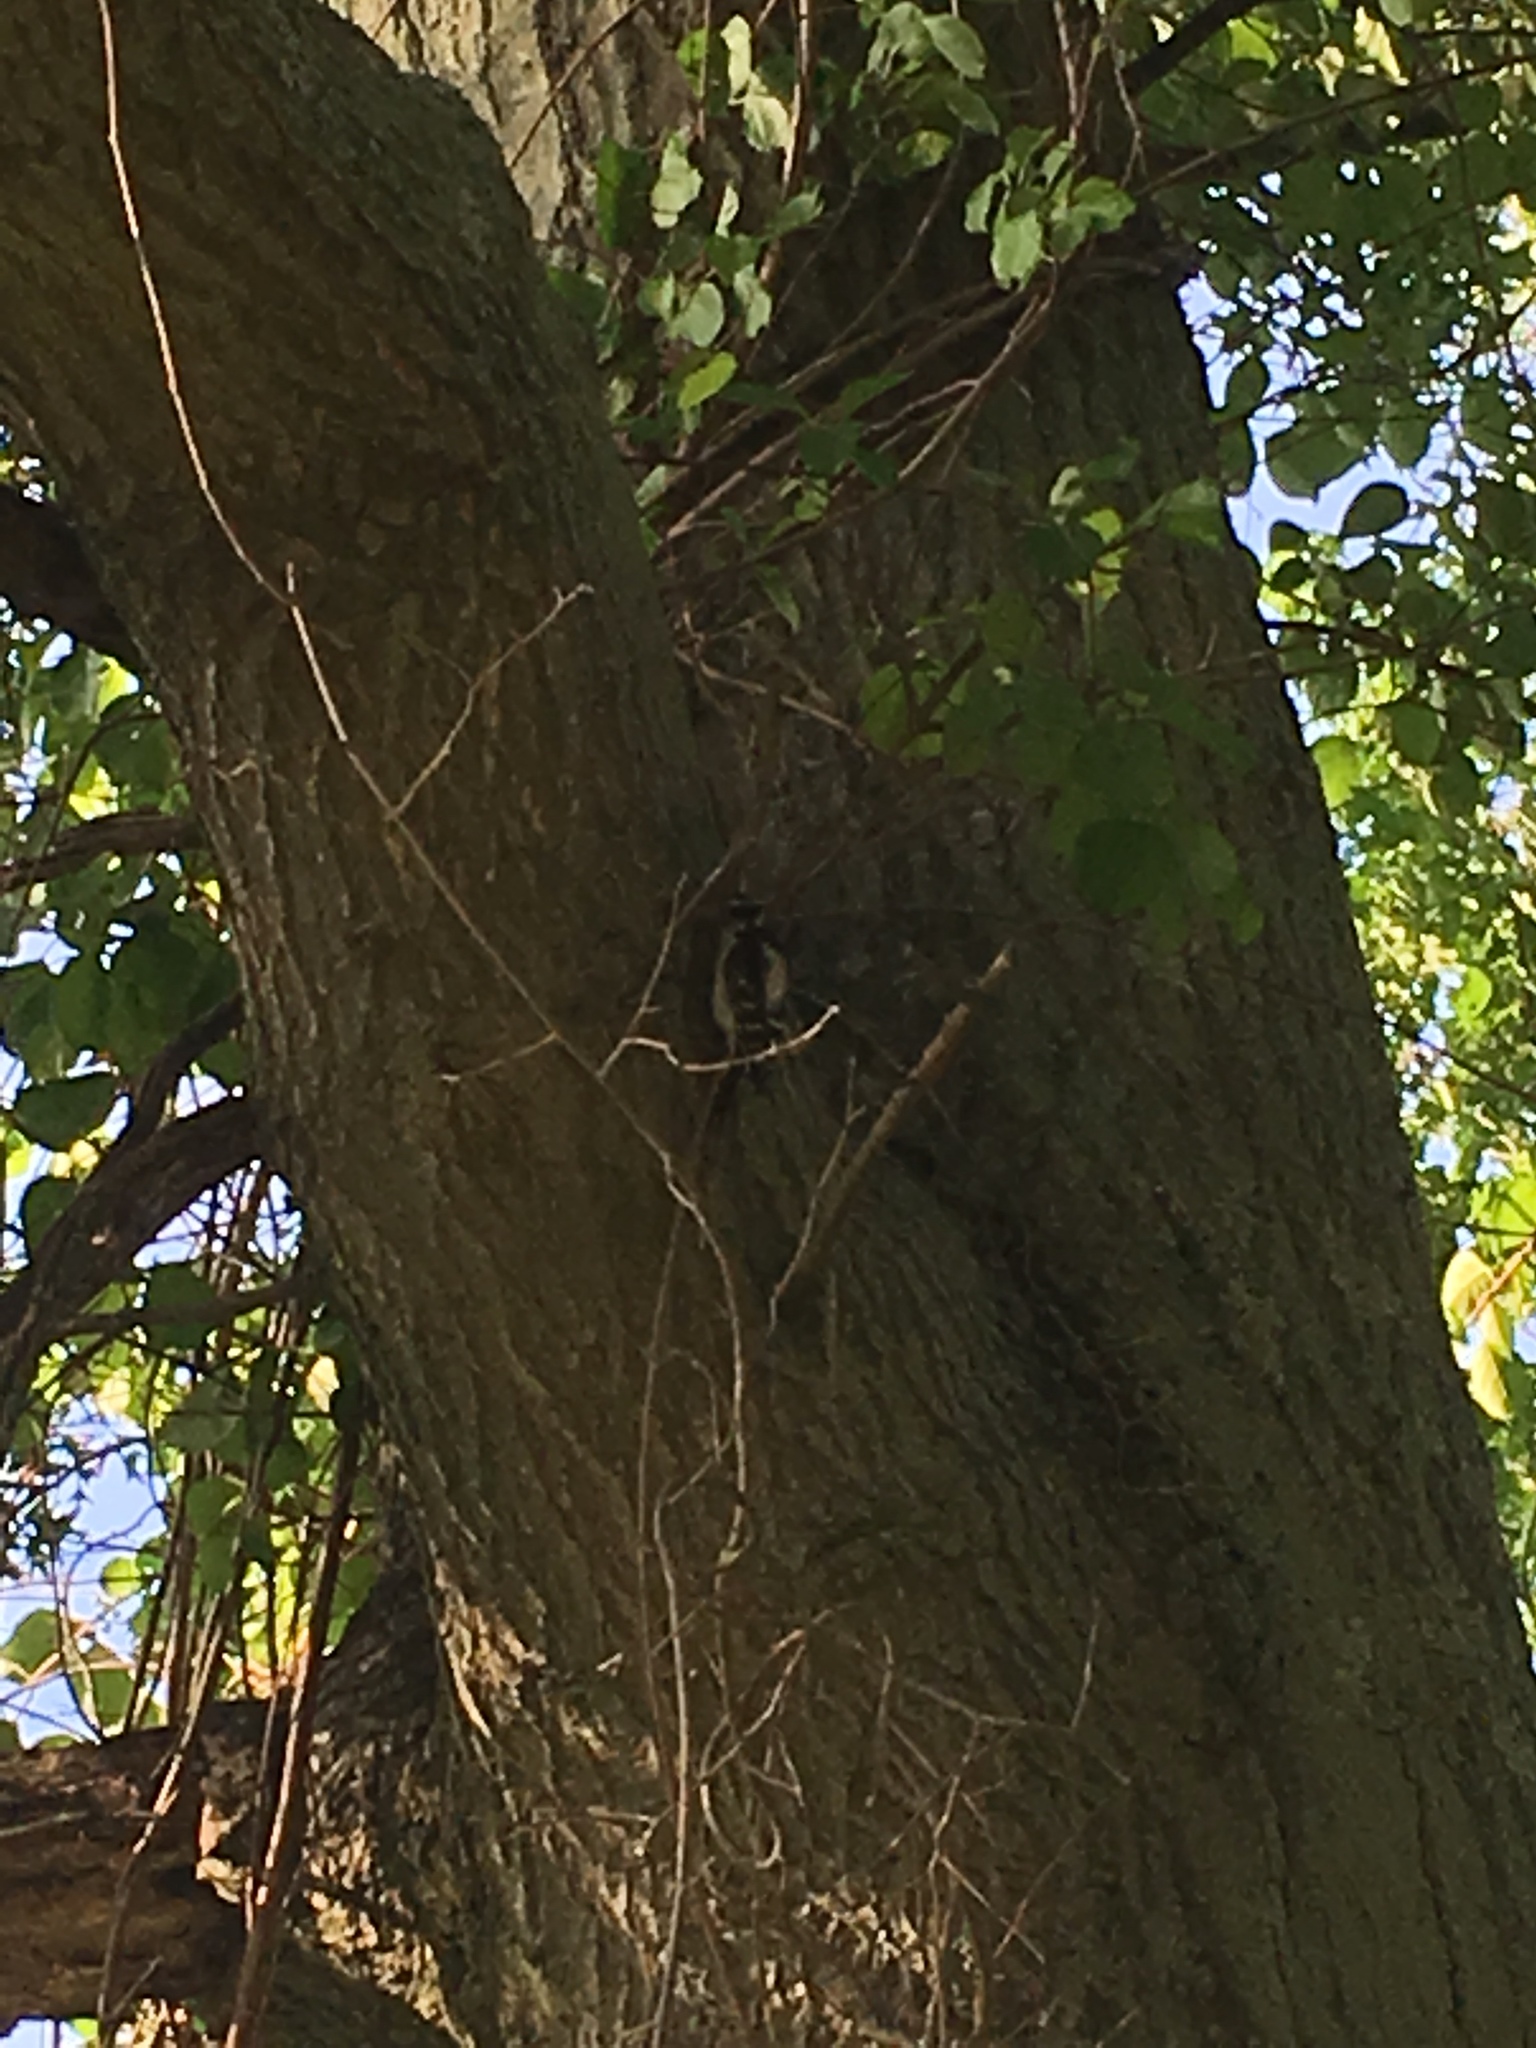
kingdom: Animalia
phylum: Chordata
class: Aves
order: Piciformes
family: Picidae
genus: Dryobates
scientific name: Dryobates pubescens
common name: Downy woodpecker
